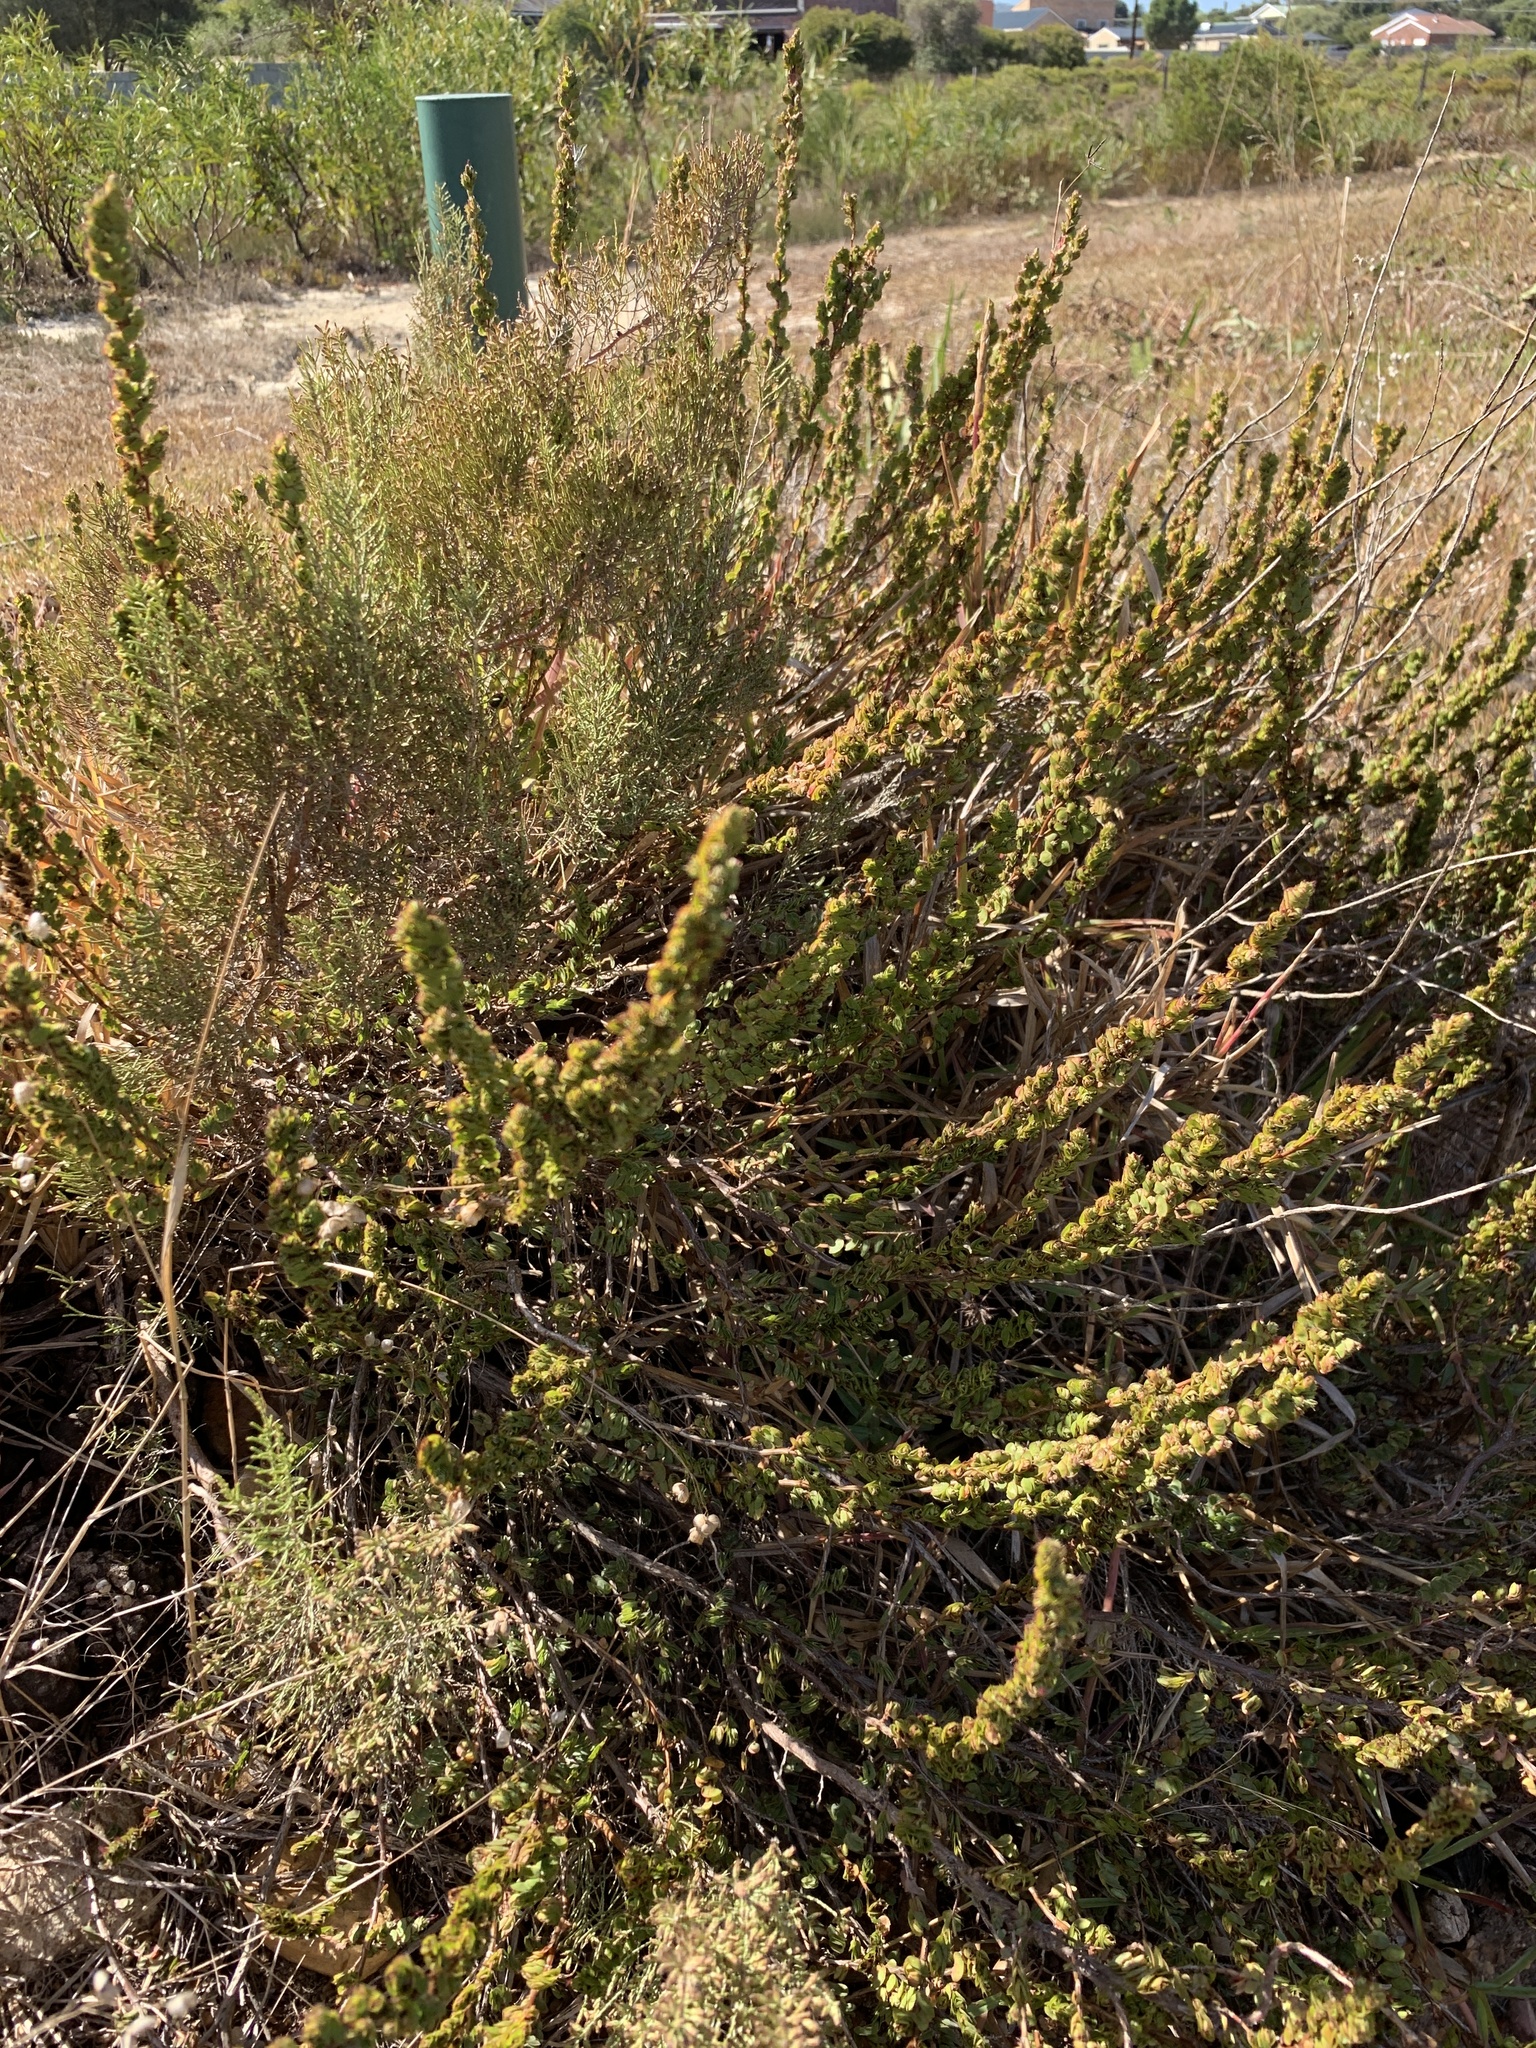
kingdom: Plantae
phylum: Tracheophyta
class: Magnoliopsida
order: Rosales
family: Rosaceae
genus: Cliffortia
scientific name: Cliffortia phyllanthoides
